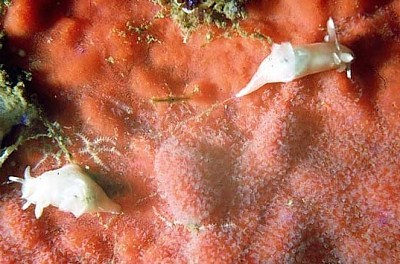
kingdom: Animalia
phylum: Mollusca
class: Gastropoda
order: Nudibranchia
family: Goniodorididae
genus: Trapania
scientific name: Trapania lineata
